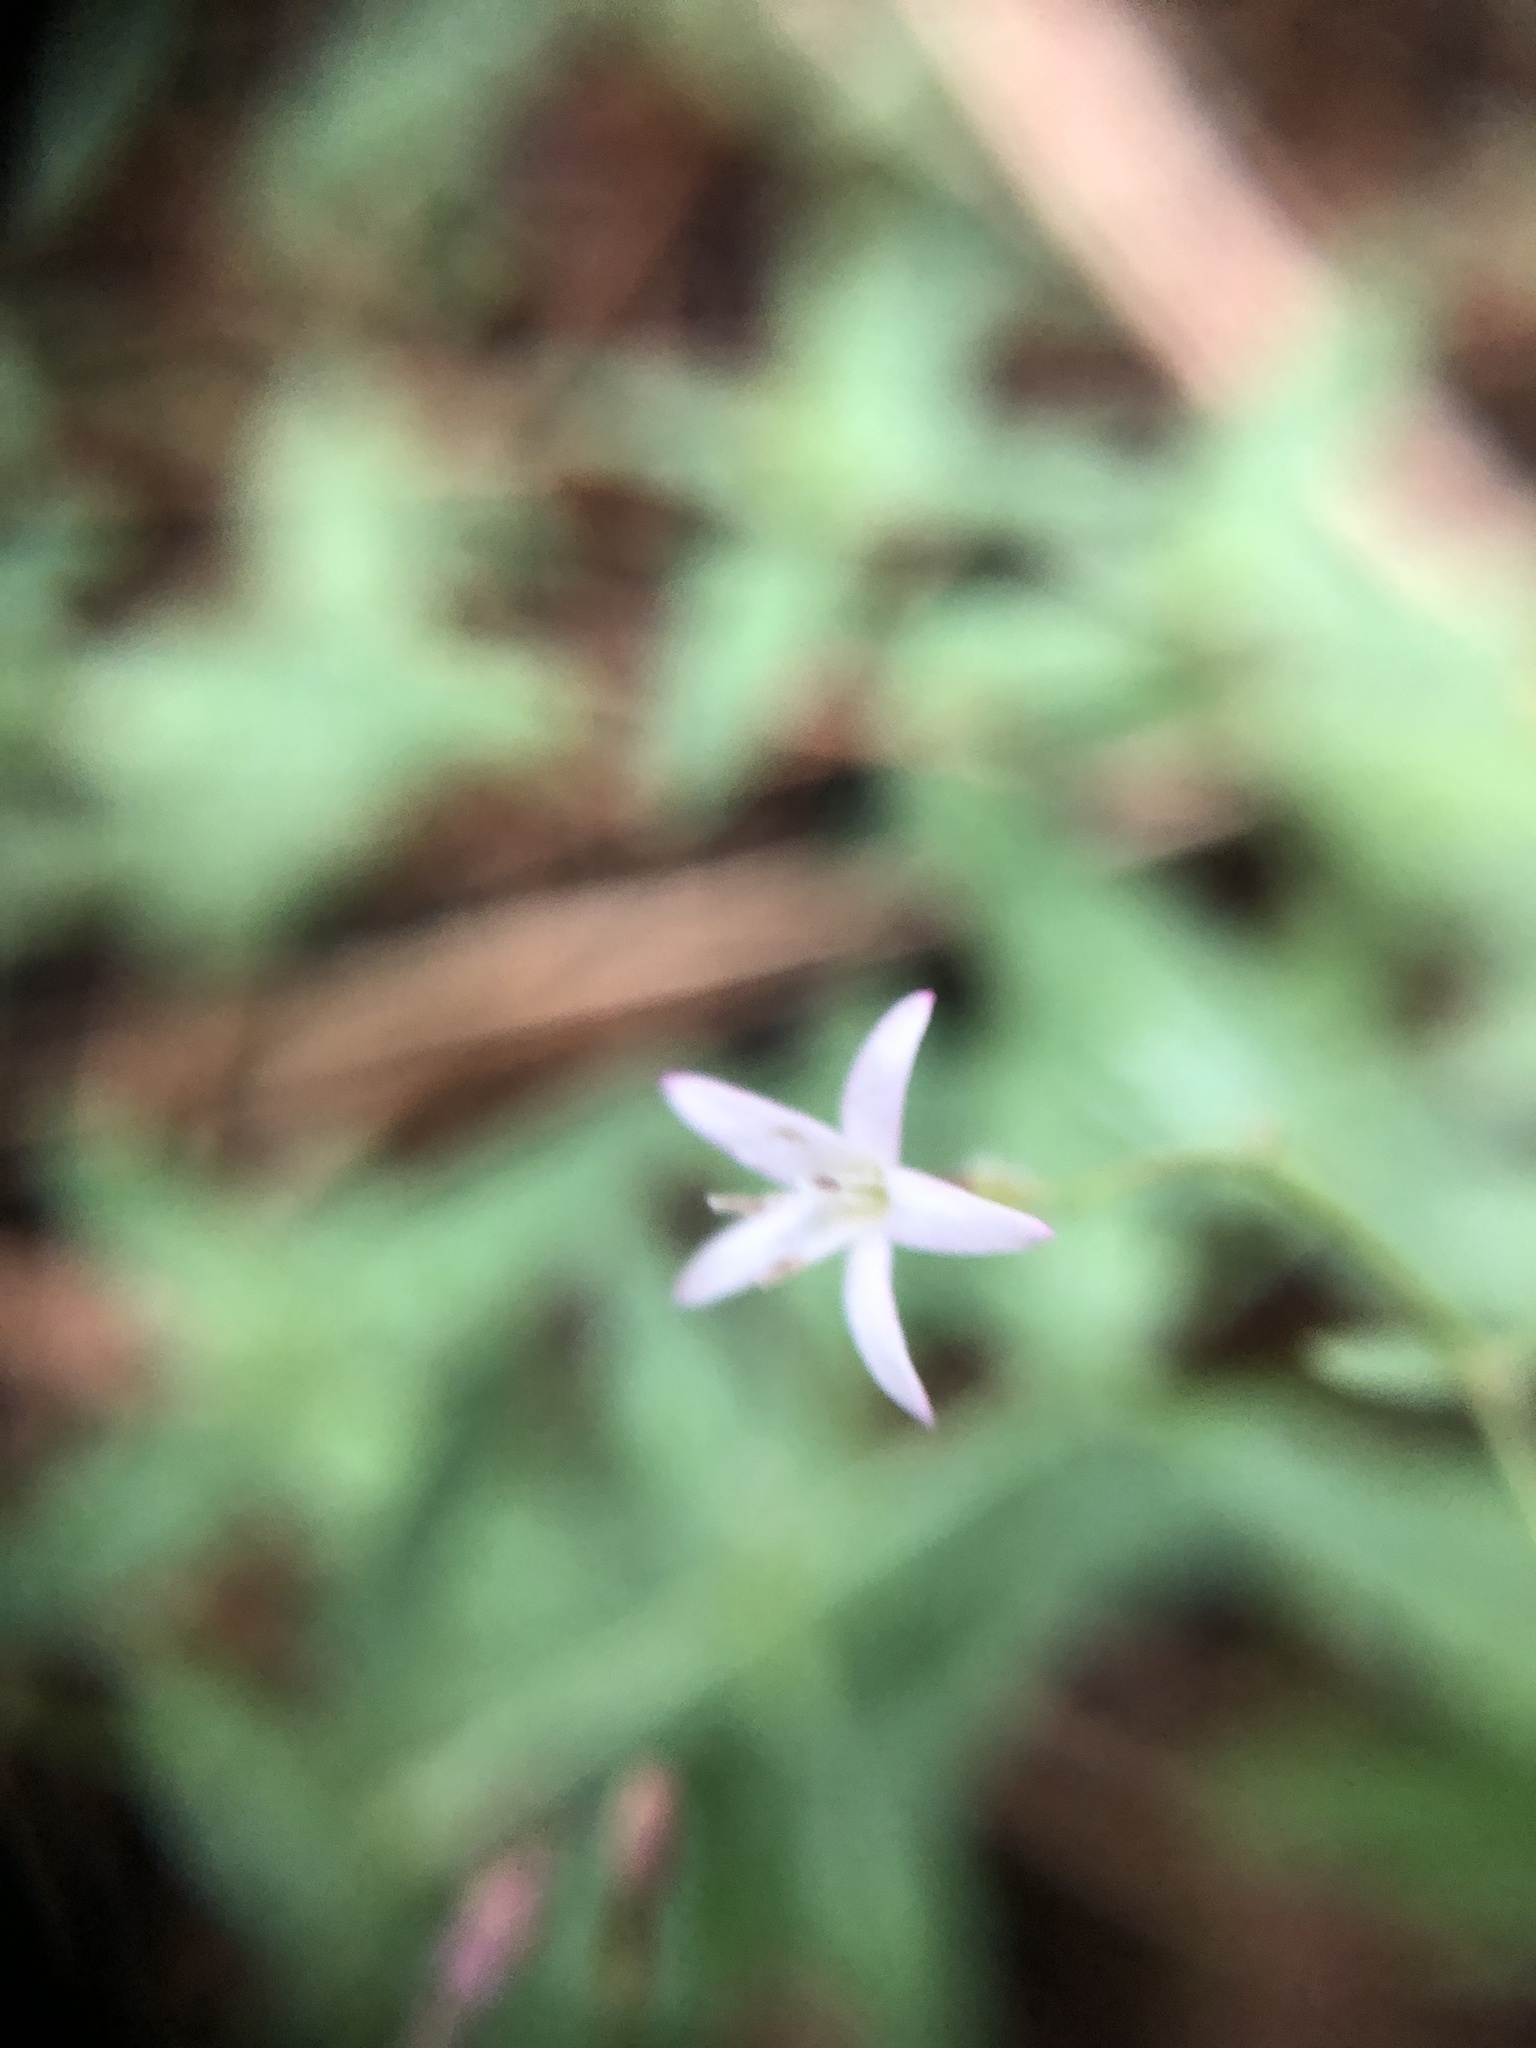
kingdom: Plantae
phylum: Tracheophyta
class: Magnoliopsida
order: Gentianales
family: Rubiaceae
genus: Kelloggia
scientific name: Kelloggia galioides
